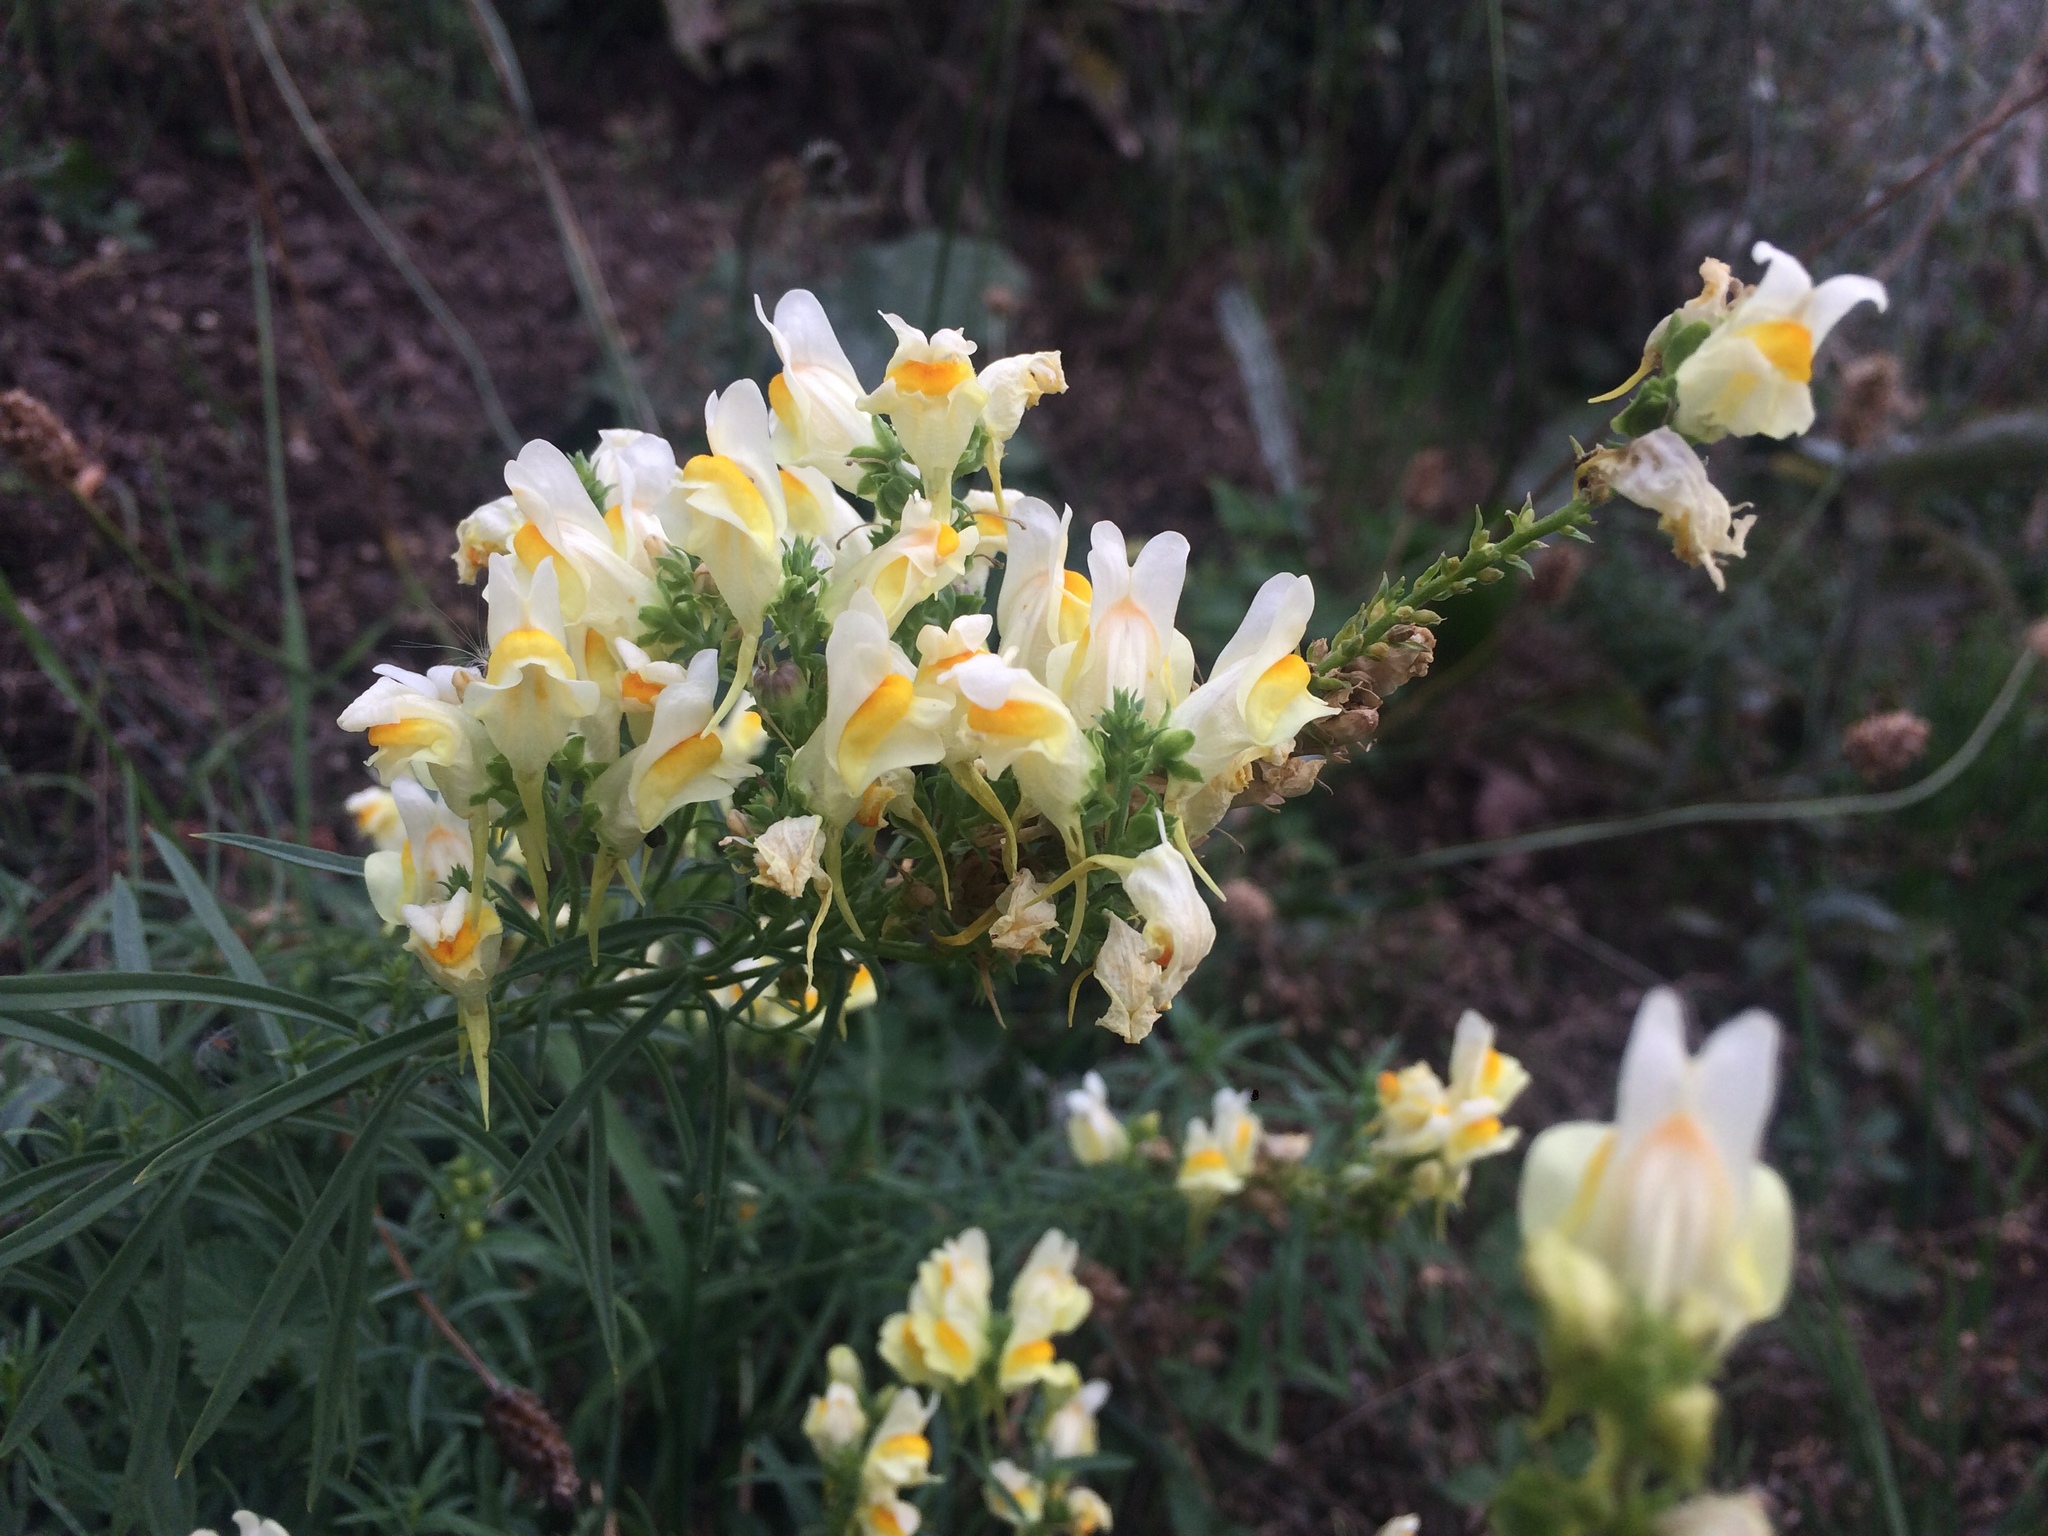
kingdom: Plantae
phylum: Tracheophyta
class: Magnoliopsida
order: Lamiales
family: Plantaginaceae
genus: Linaria
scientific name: Linaria vulgaris
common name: Butter and eggs
